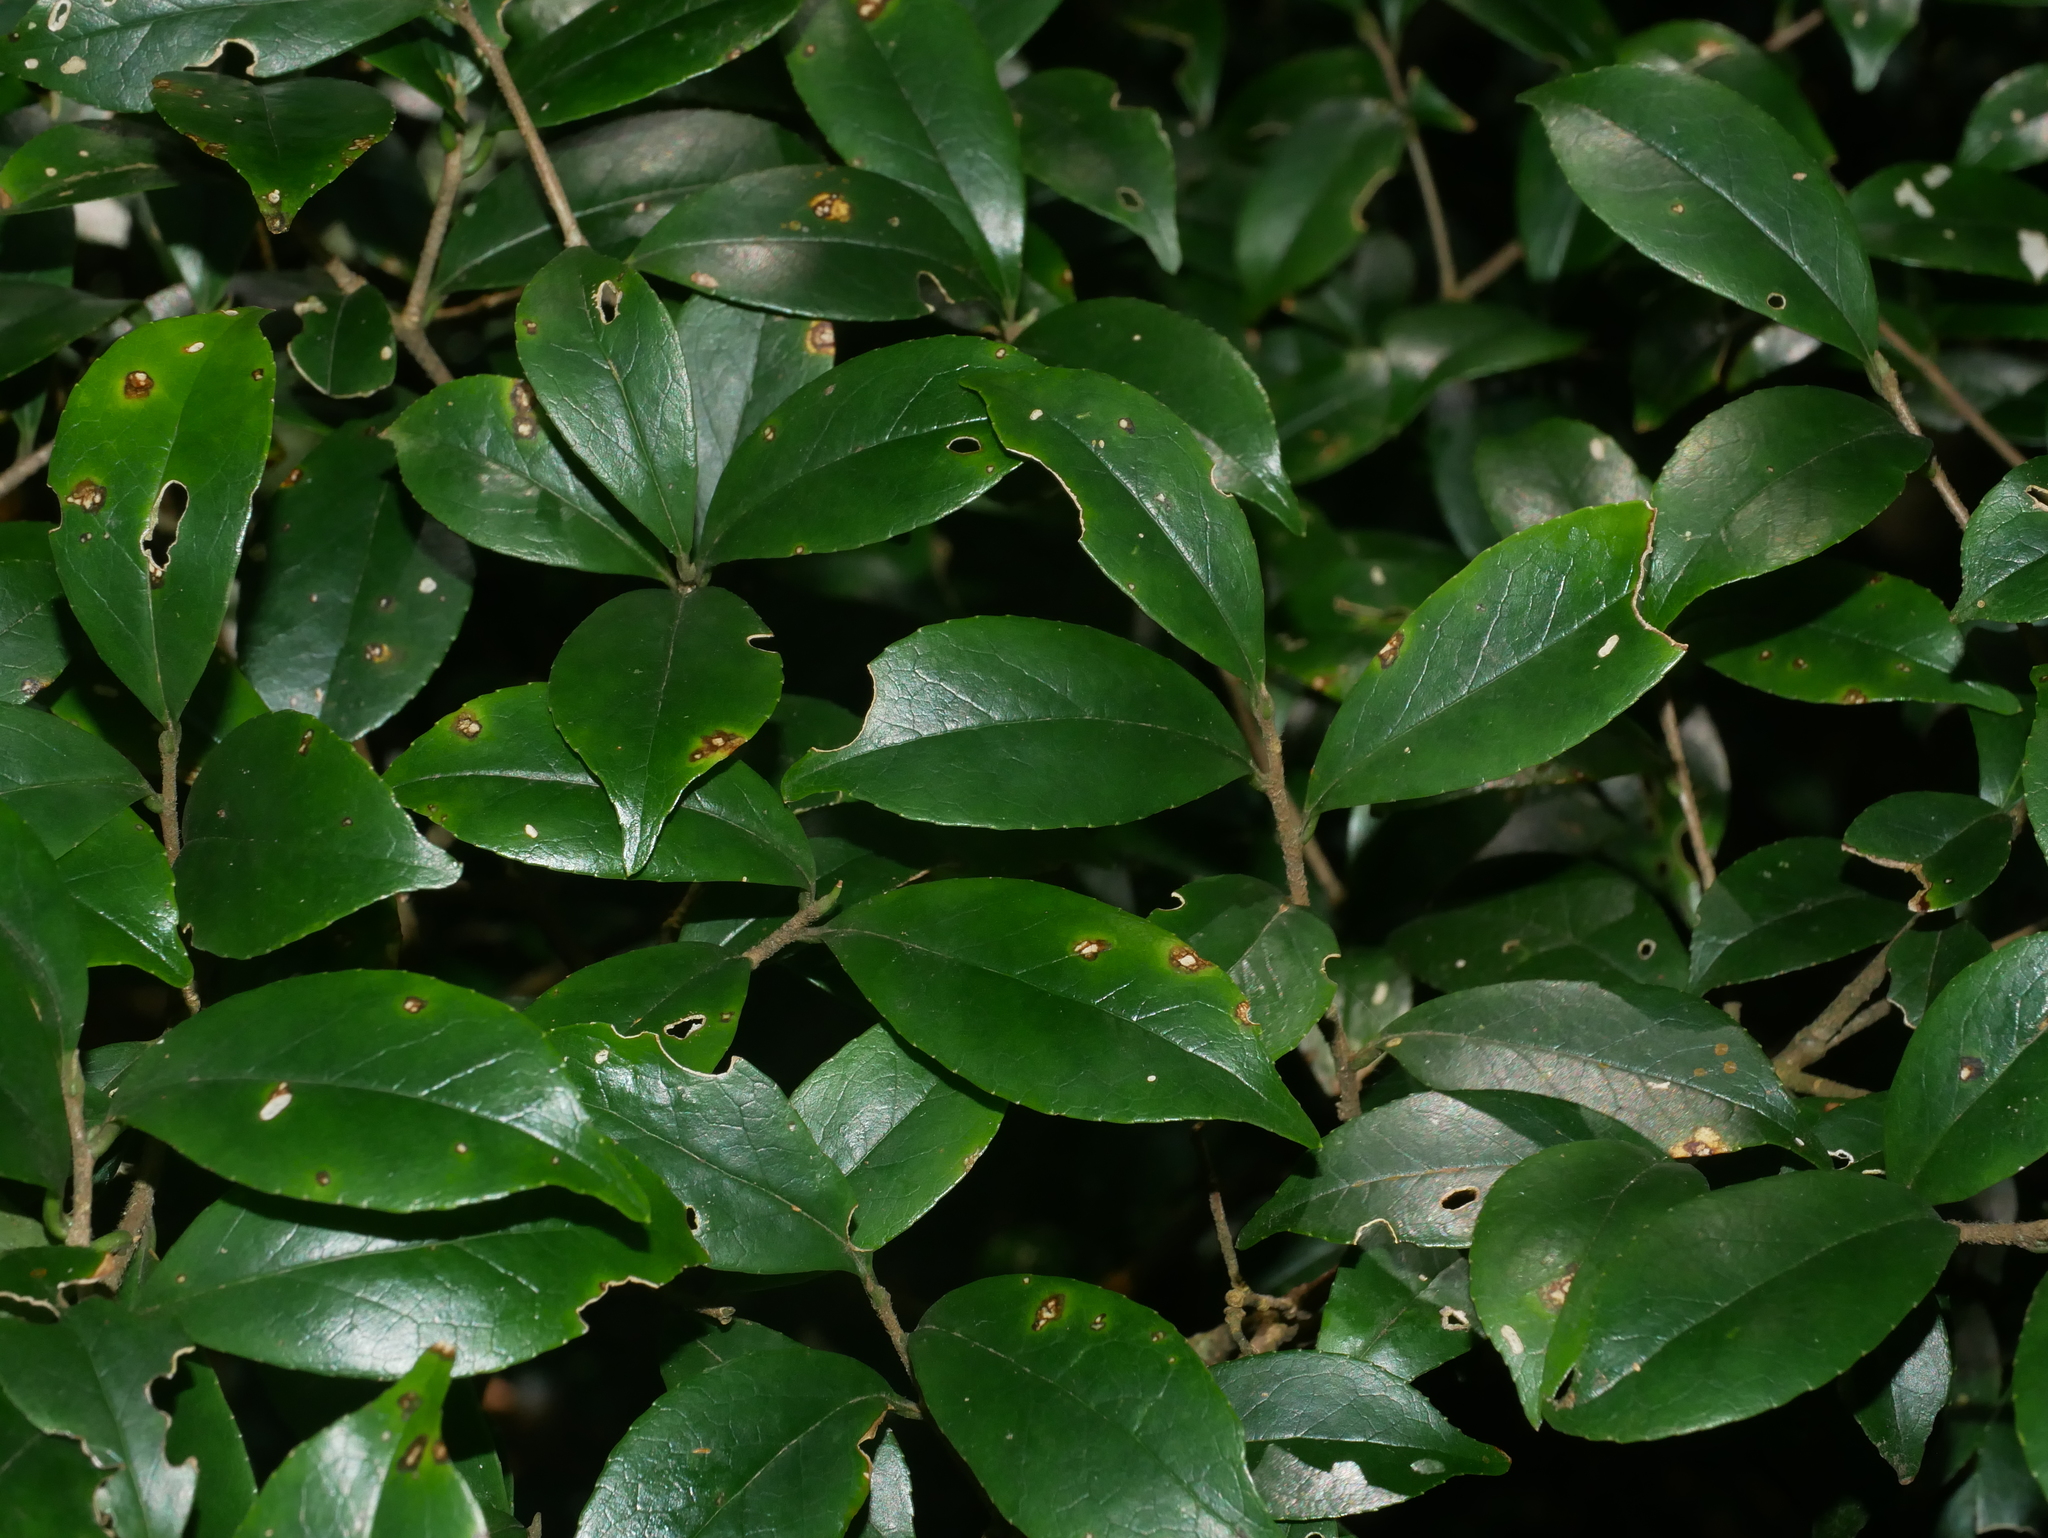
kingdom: Plantae
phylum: Tracheophyta
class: Magnoliopsida
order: Ericales
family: Symplocaceae
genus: Symplocos
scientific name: Symplocos sumuntia
